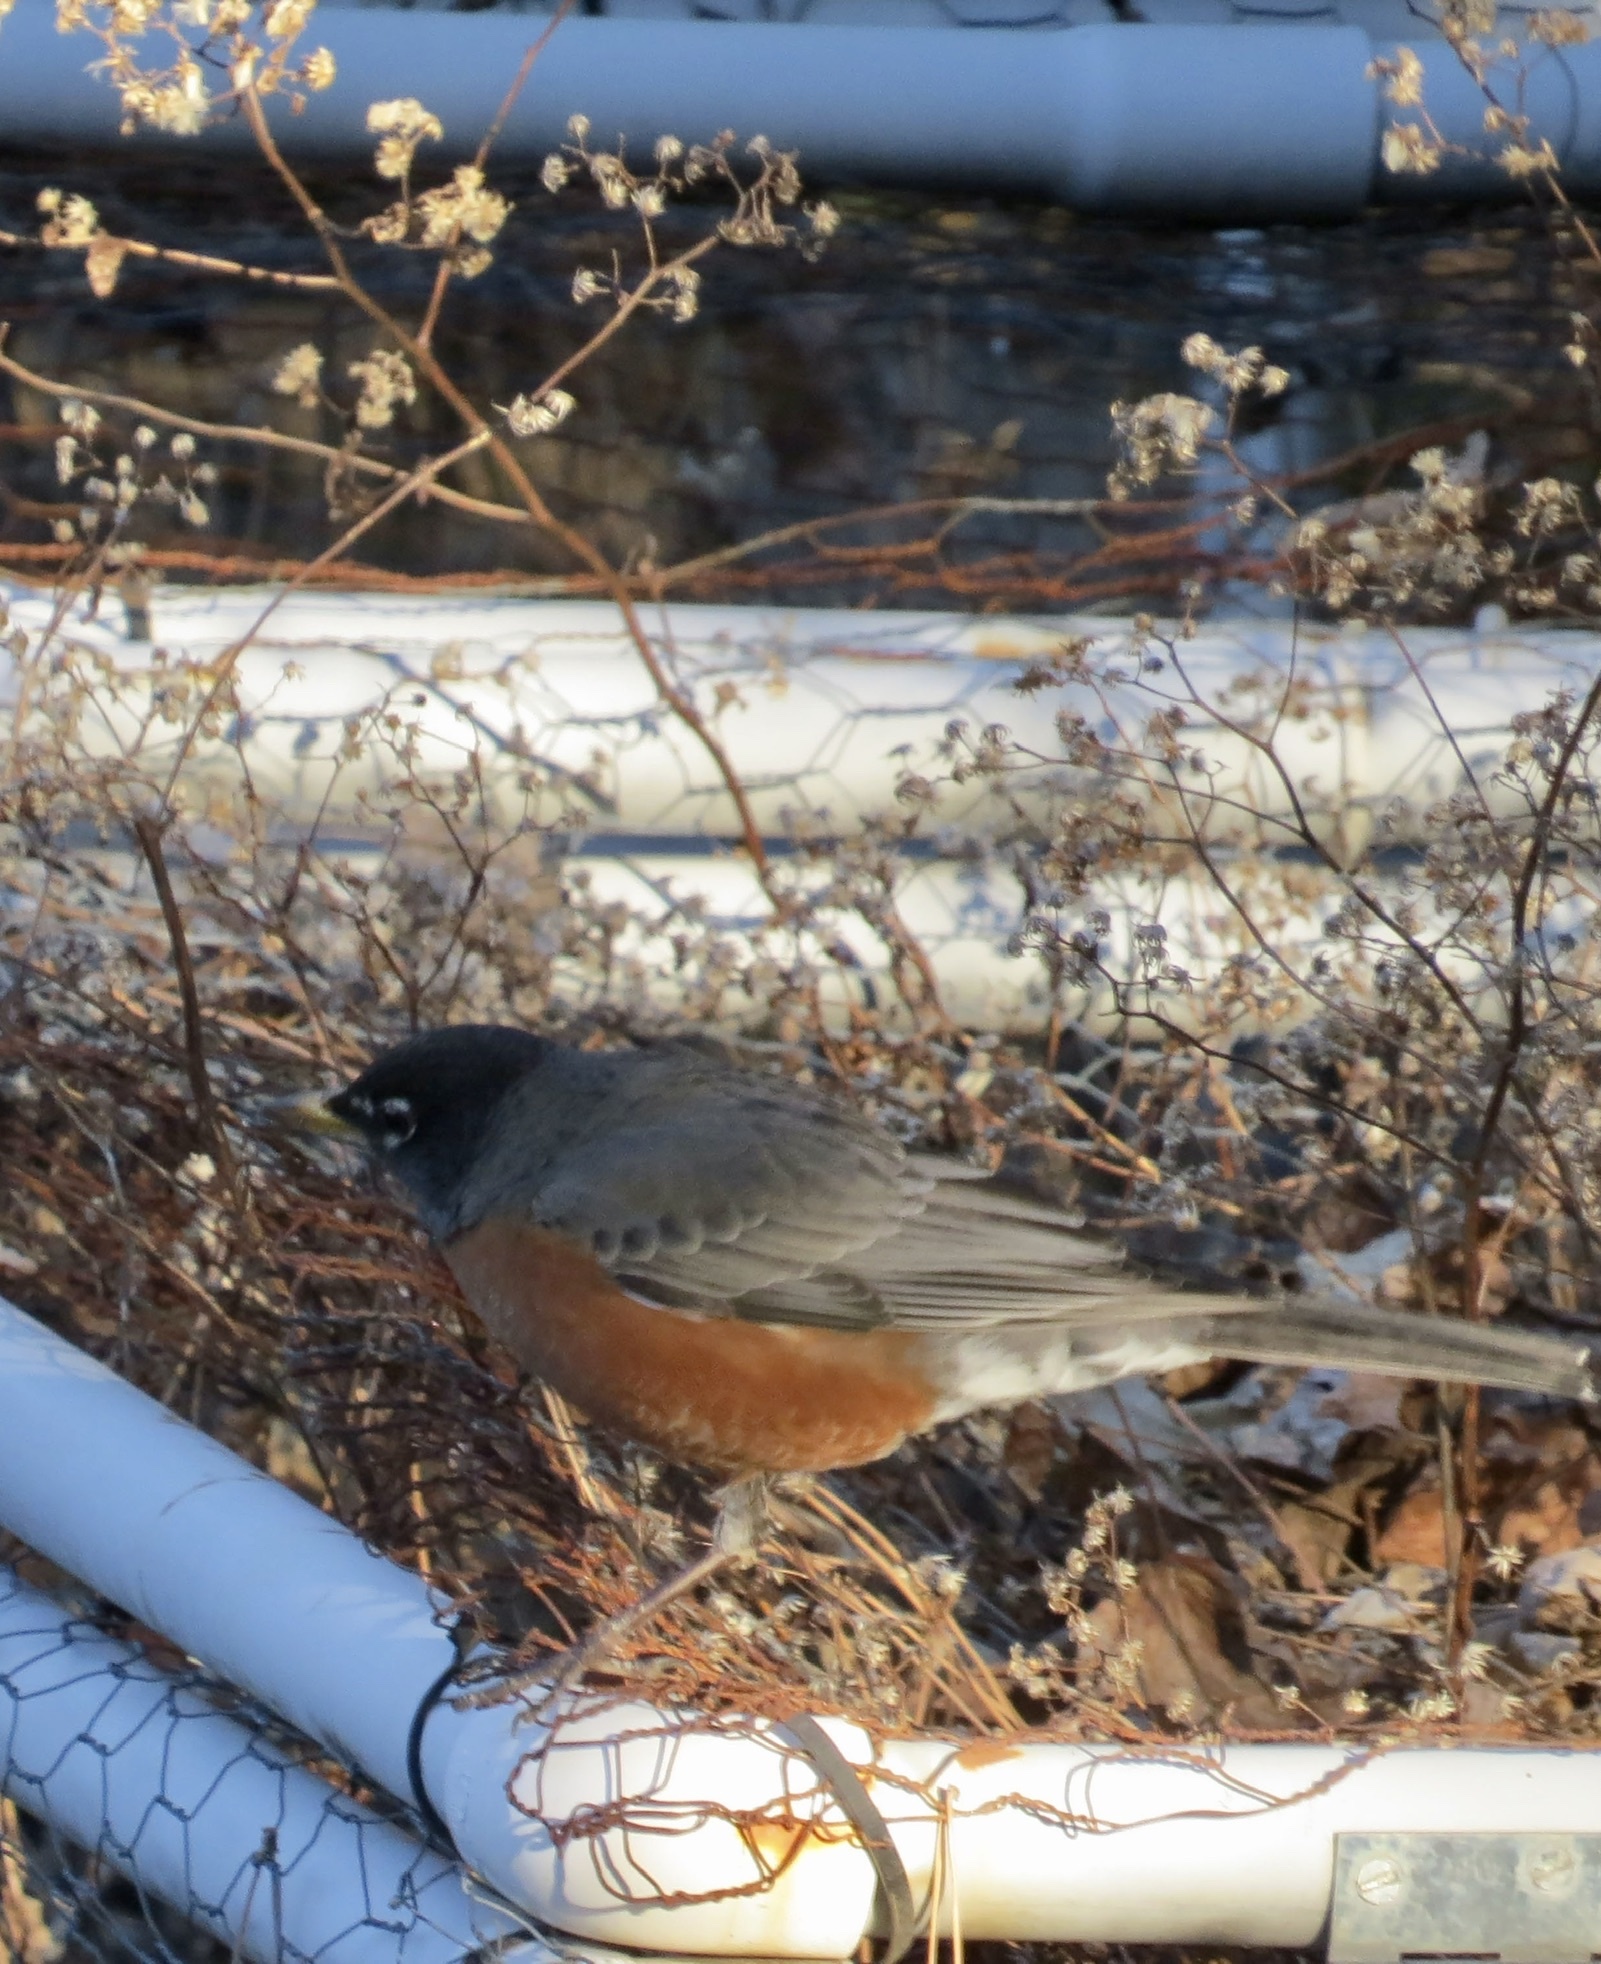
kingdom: Animalia
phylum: Chordata
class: Aves
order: Passeriformes
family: Turdidae
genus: Turdus
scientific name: Turdus migratorius
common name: American robin
